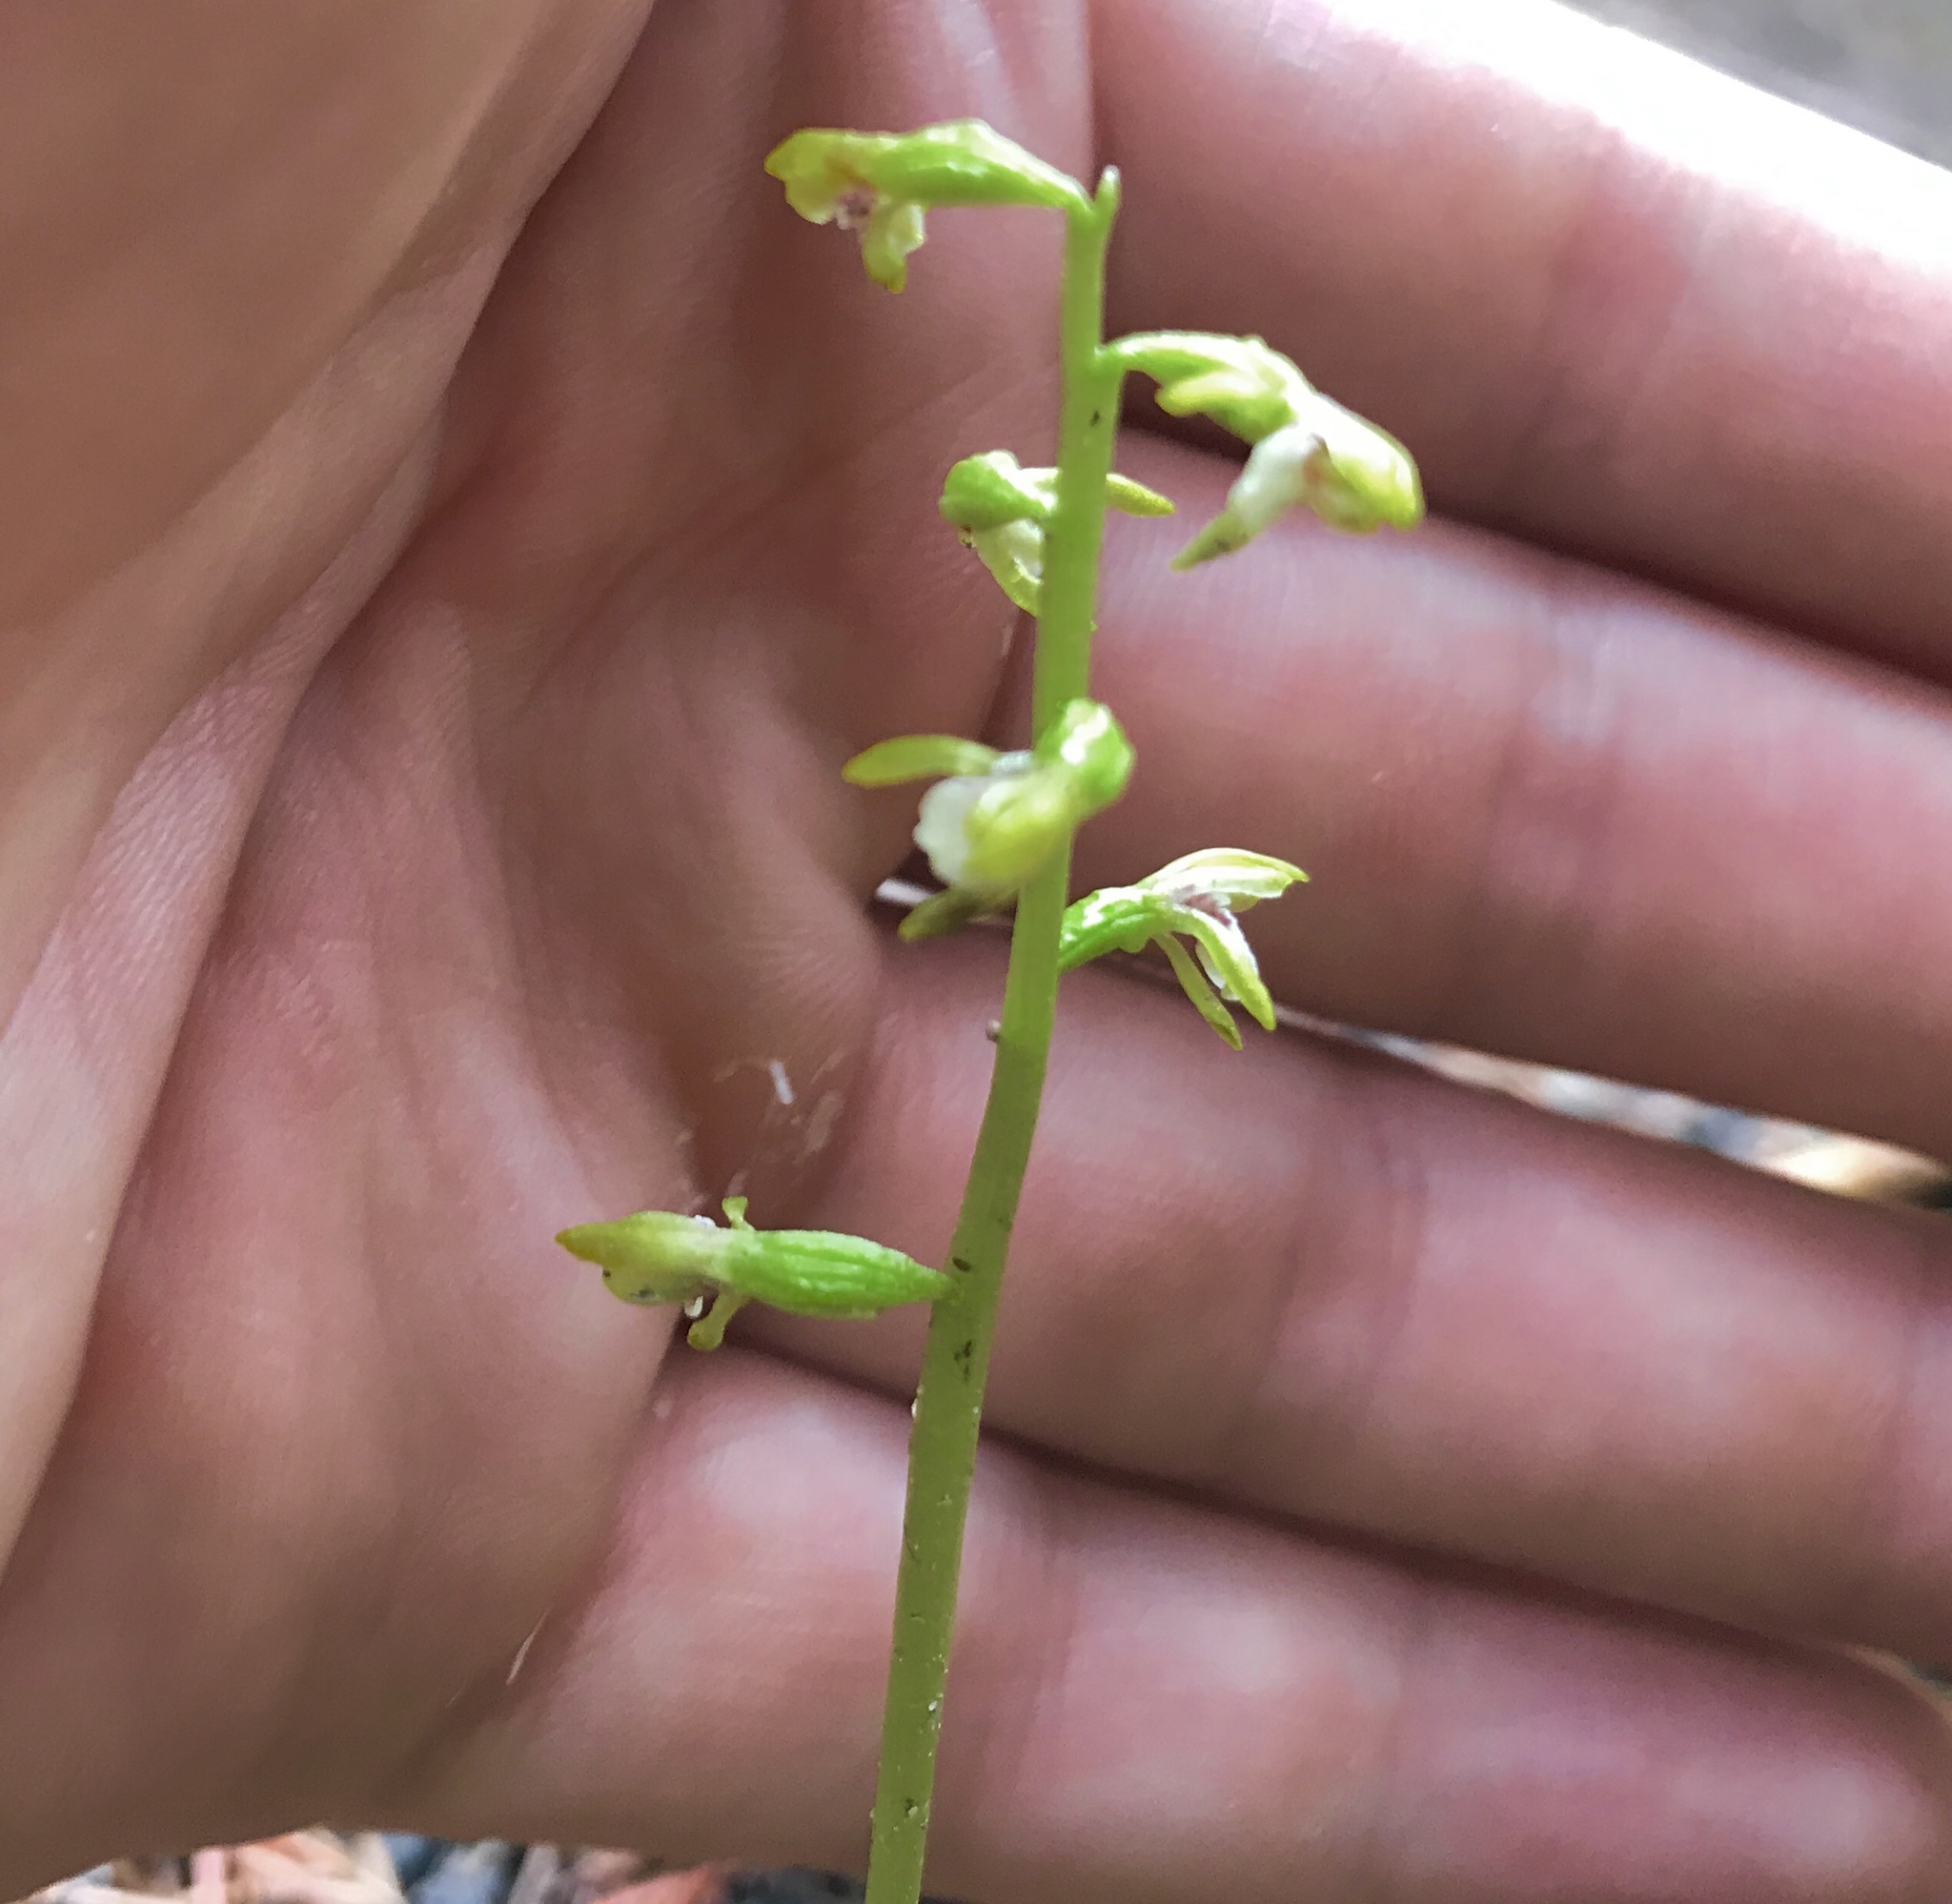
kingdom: Plantae
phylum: Tracheophyta
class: Liliopsida
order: Asparagales
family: Orchidaceae
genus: Corallorhiza
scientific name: Corallorhiza trifida
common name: Yellow coralroot
